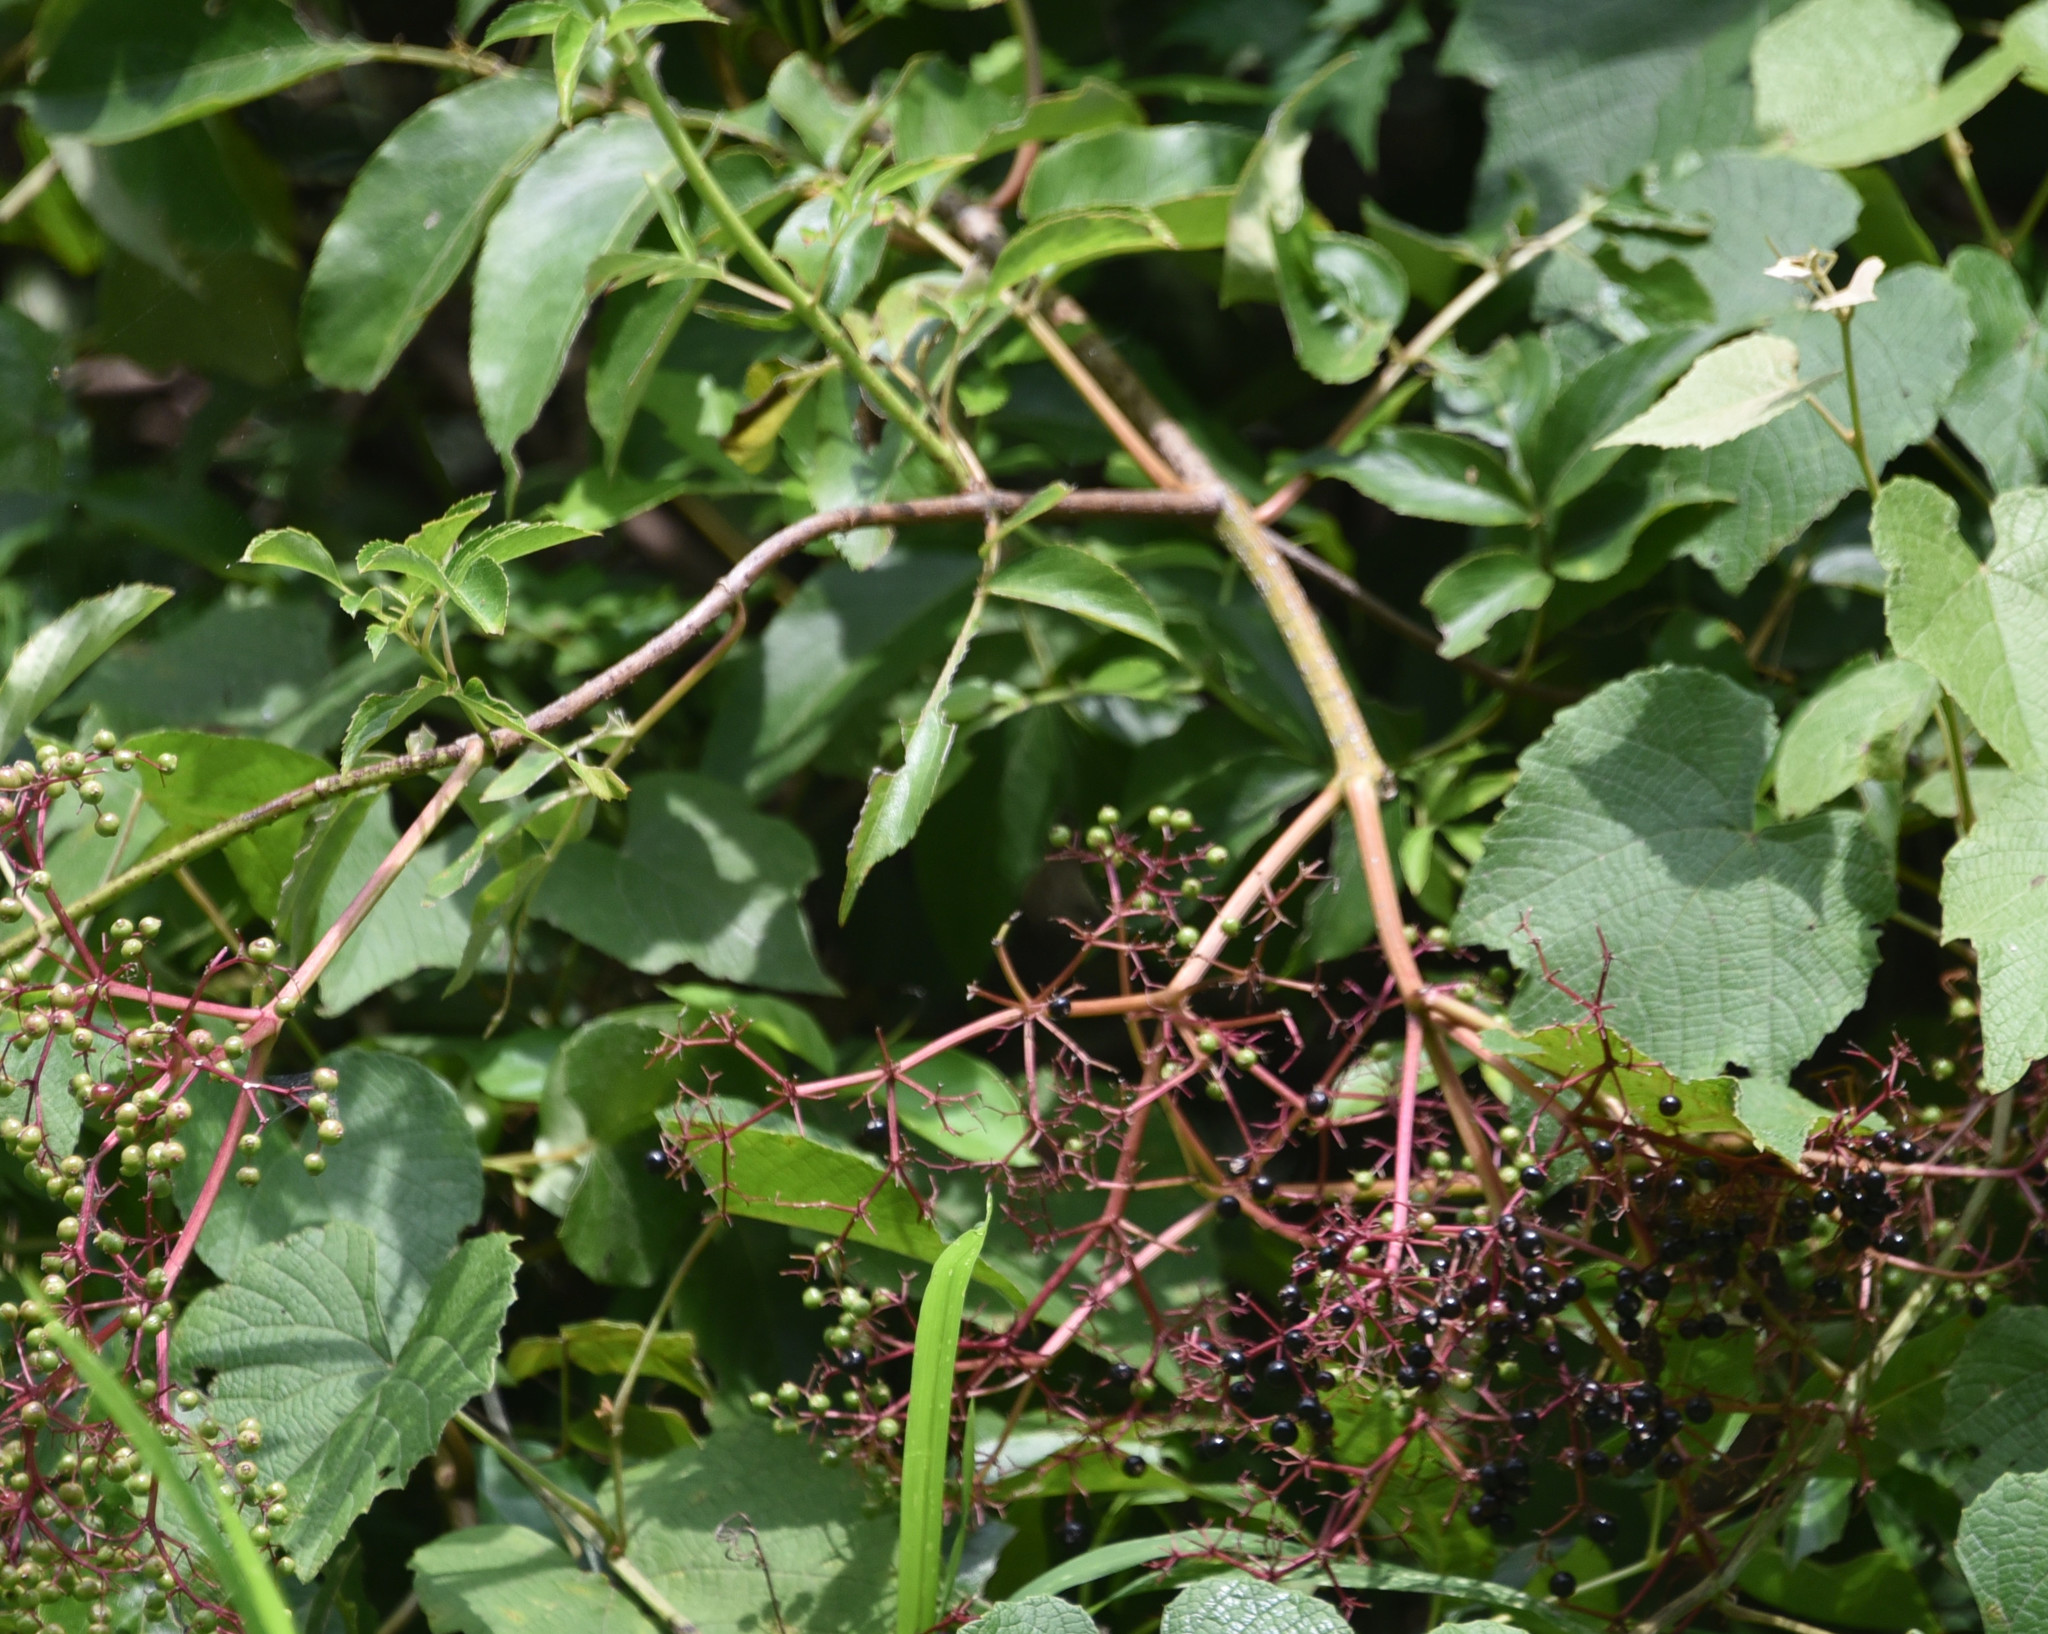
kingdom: Plantae
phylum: Tracheophyta
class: Magnoliopsida
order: Dipsacales
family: Viburnaceae
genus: Sambucus
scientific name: Sambucus canadensis
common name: American elder
